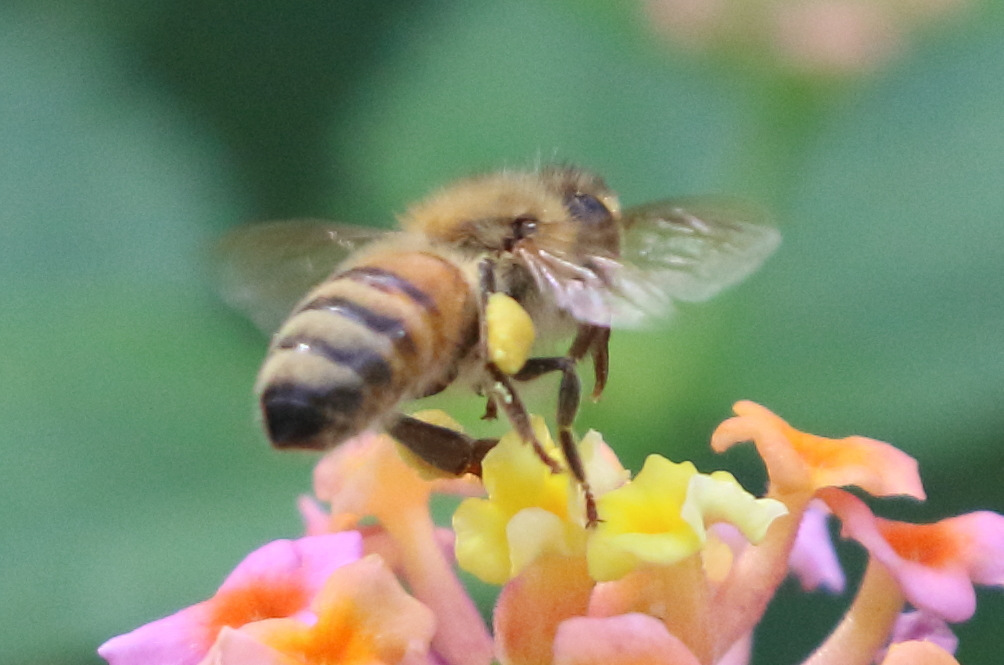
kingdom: Animalia
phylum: Arthropoda
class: Insecta
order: Hymenoptera
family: Apidae
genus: Apis
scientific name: Apis mellifera
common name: Honey bee
